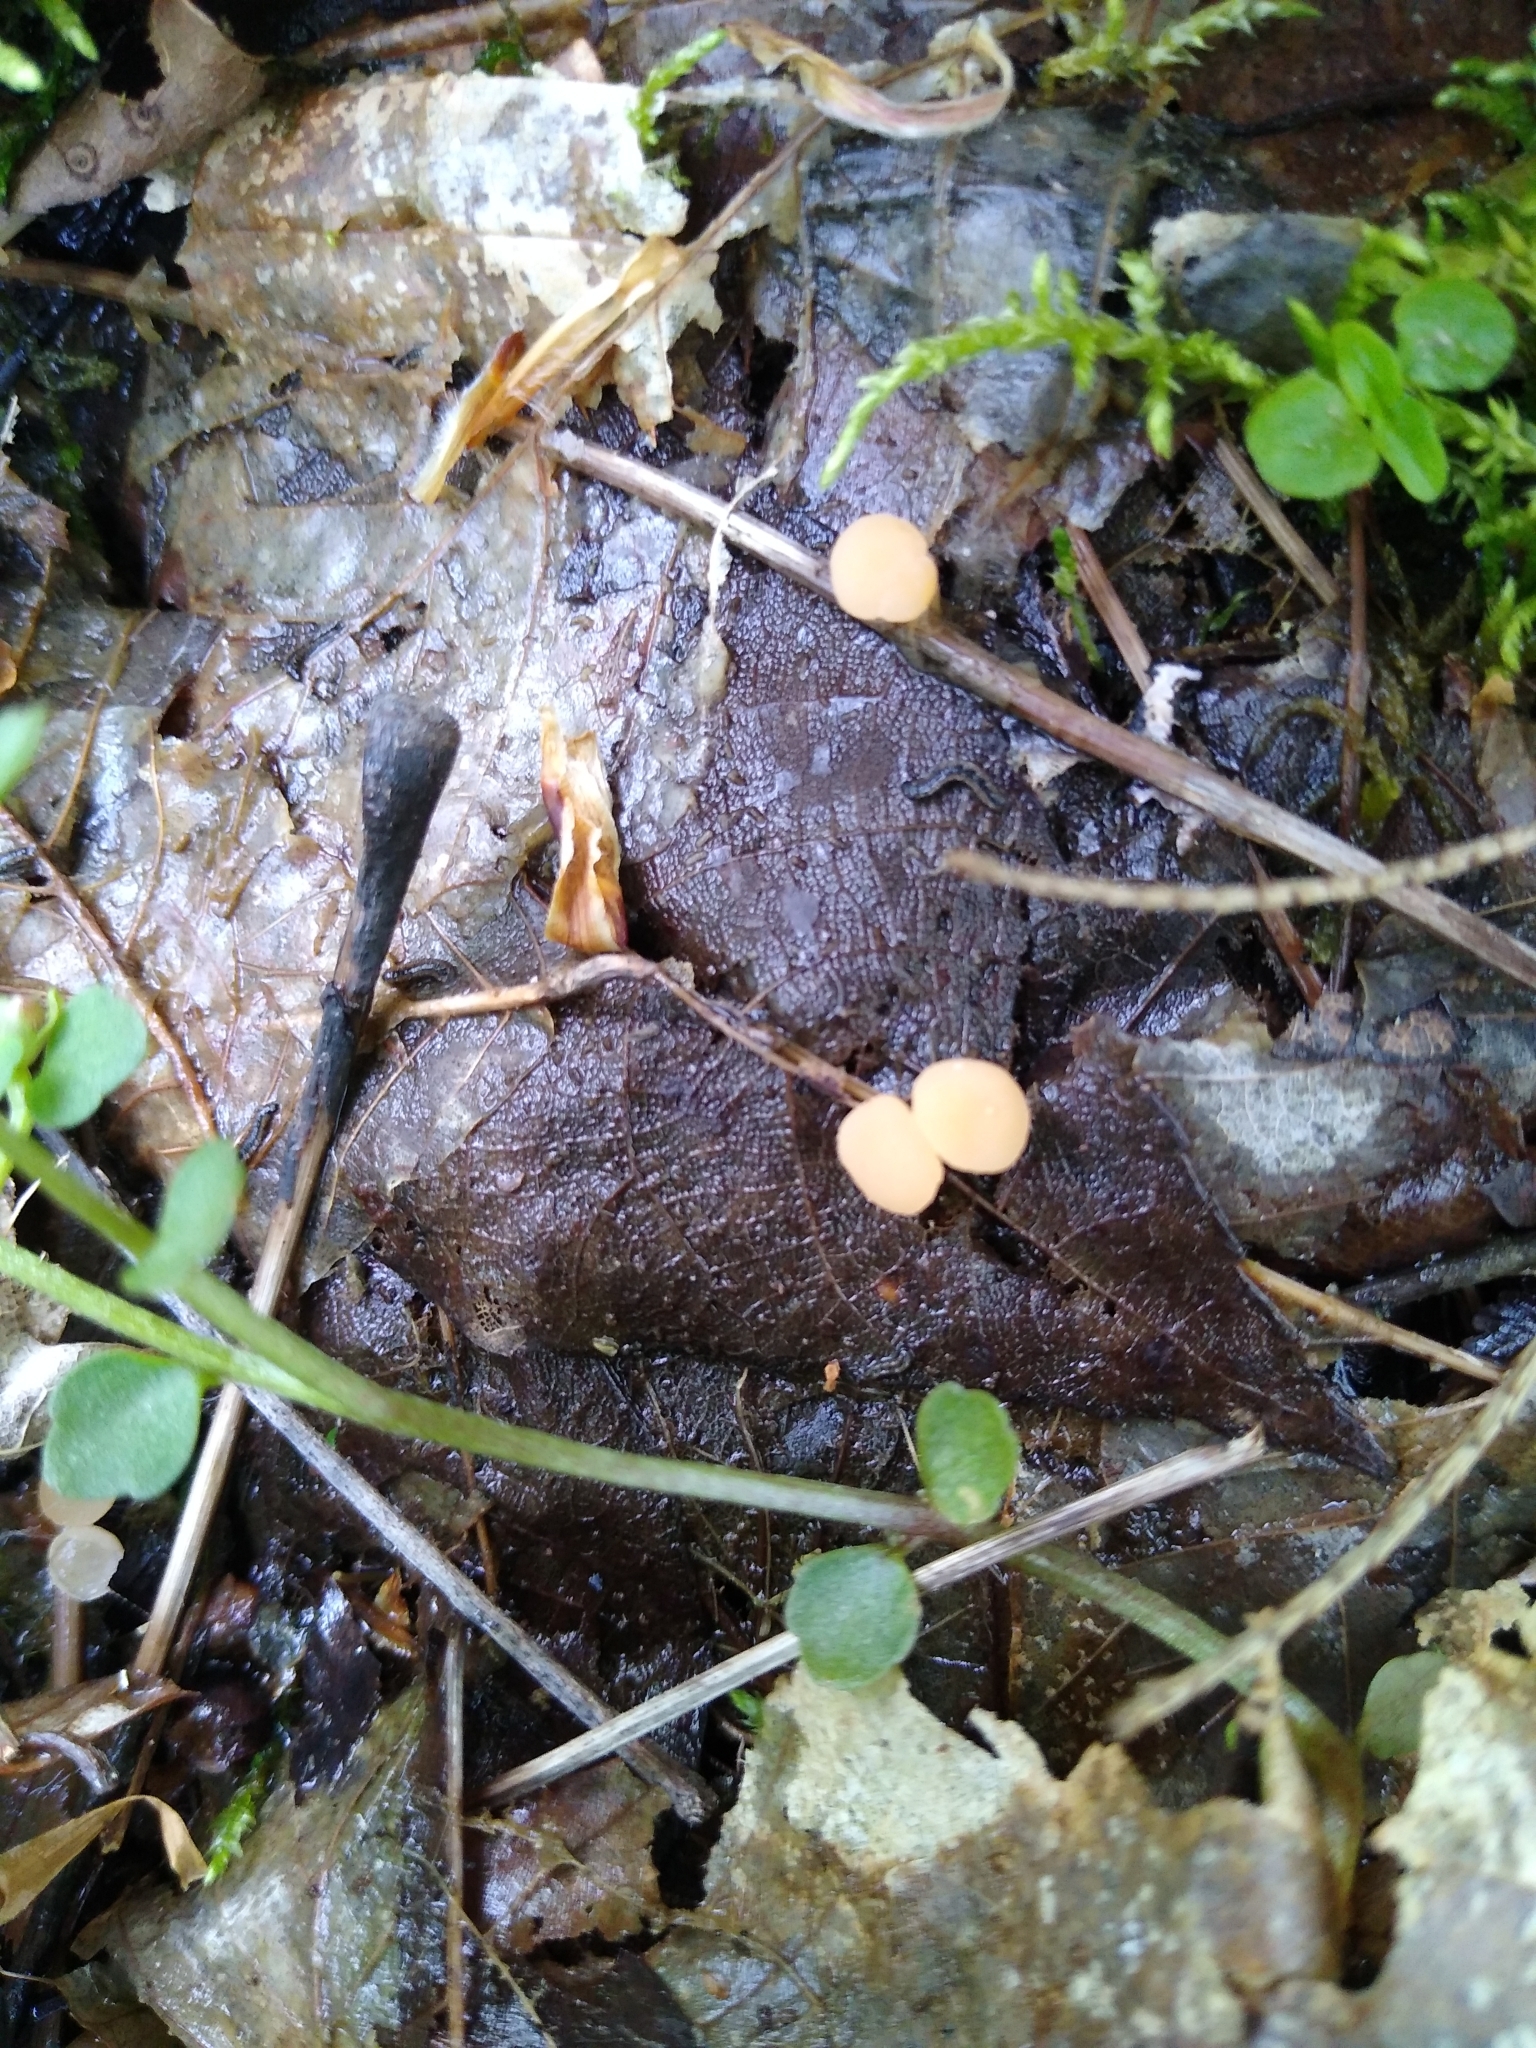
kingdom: Fungi
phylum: Ascomycota
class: Leotiomycetes
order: Helotiales
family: Tricladiaceae
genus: Cudoniella
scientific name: Cudoniella clavus
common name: Spring pin
